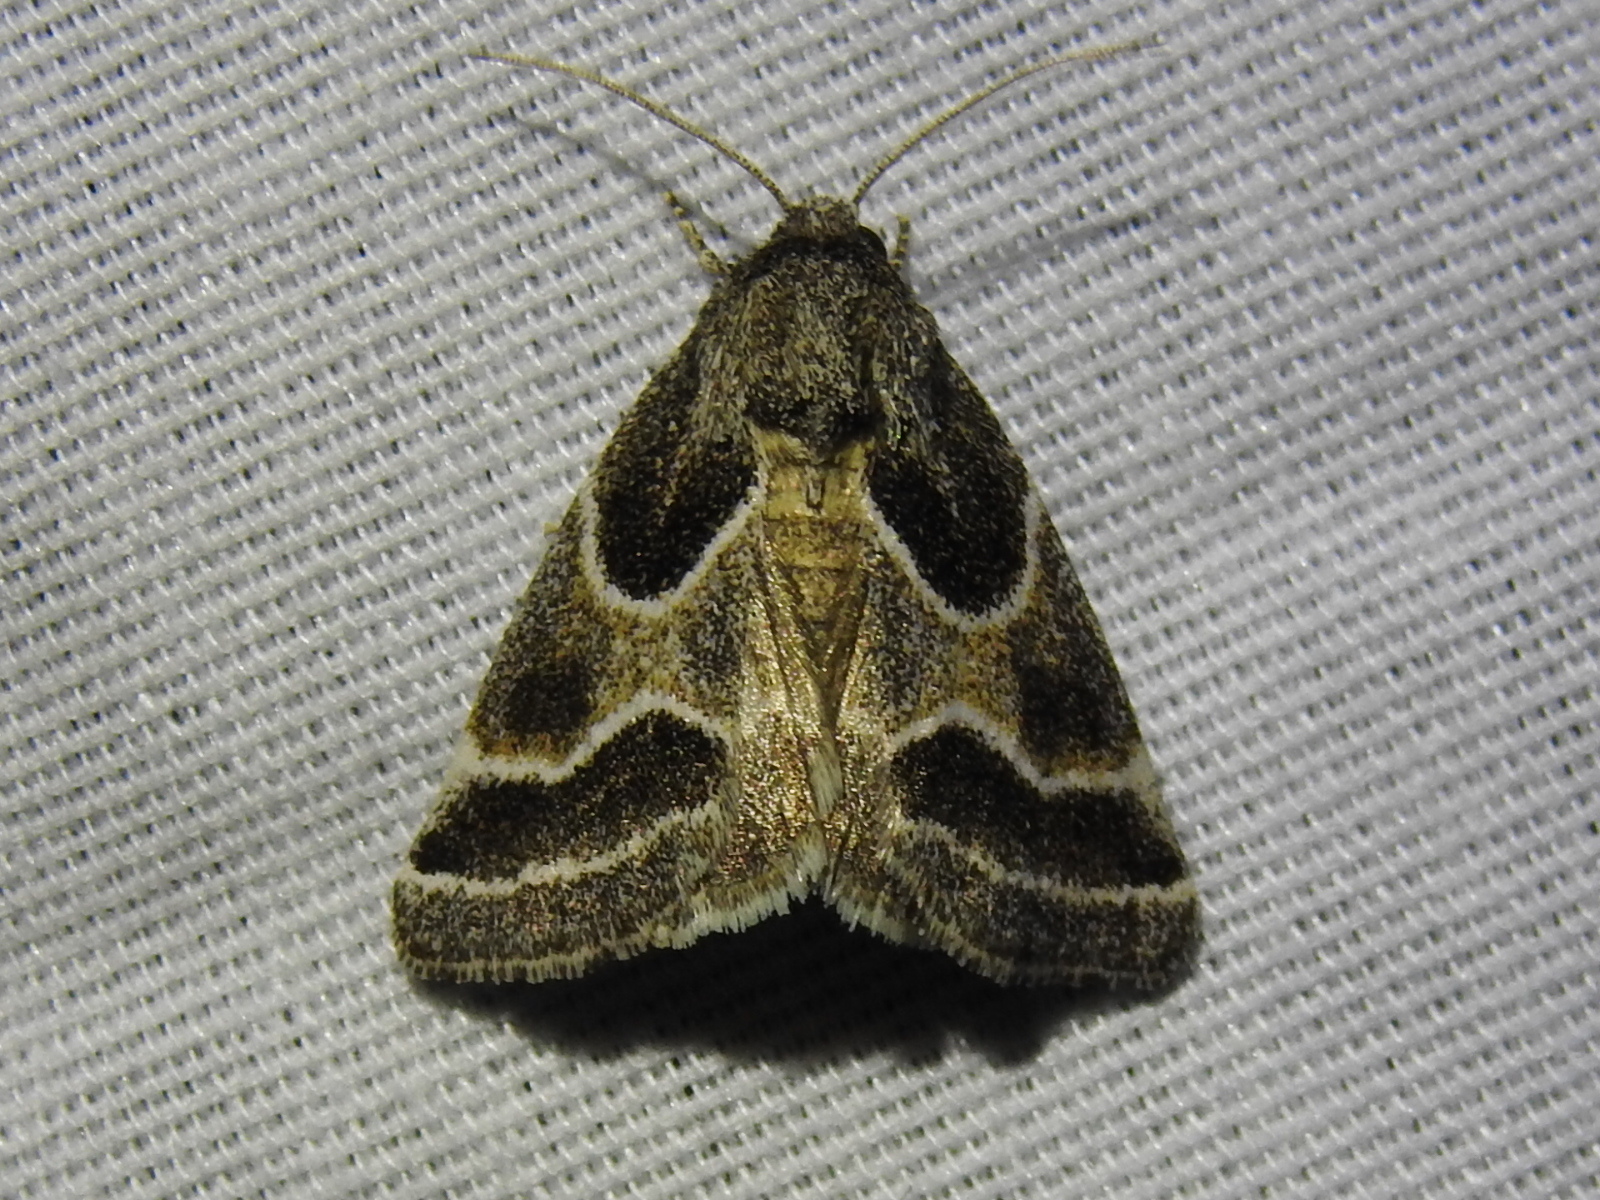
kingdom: Animalia
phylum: Arthropoda
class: Insecta
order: Lepidoptera
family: Noctuidae
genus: Schinia
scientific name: Schinia rivulosa
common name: Scarce meal-moth
